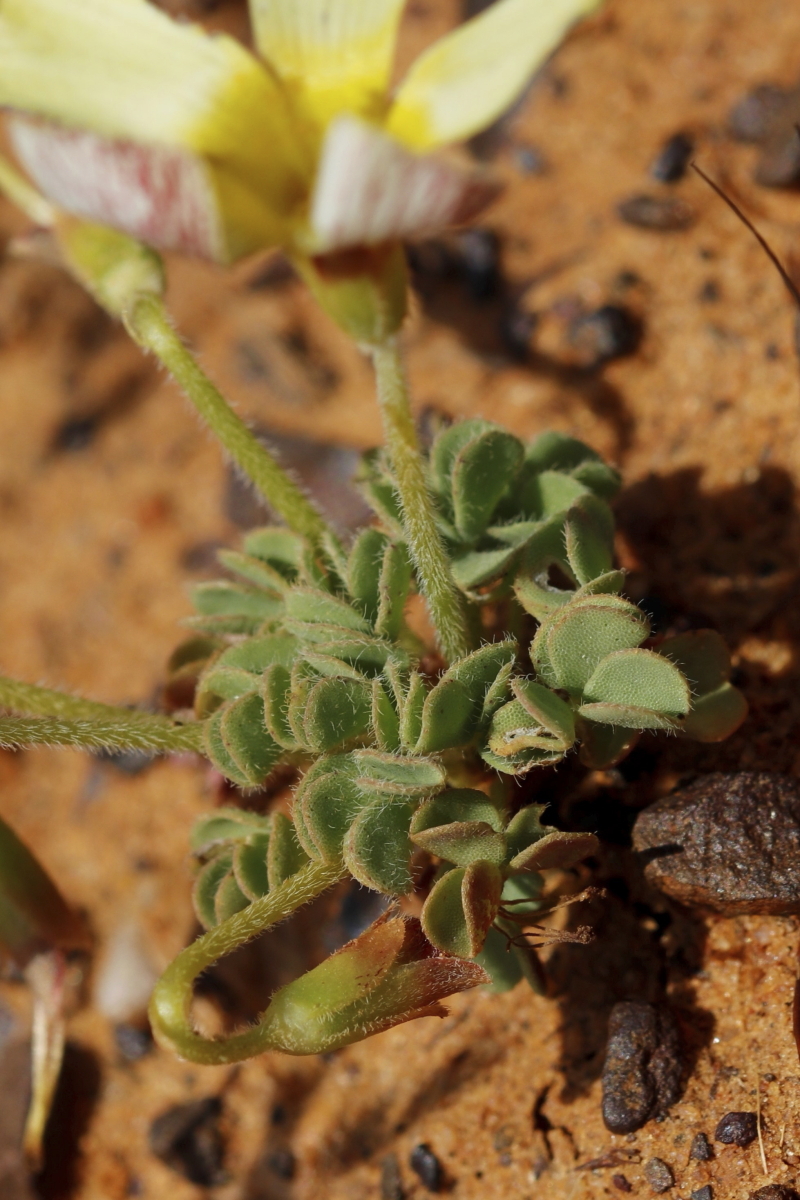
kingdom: Plantae
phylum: Tracheophyta
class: Magnoliopsida
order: Oxalidales
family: Oxalidaceae
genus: Oxalis
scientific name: Oxalis obtusa
